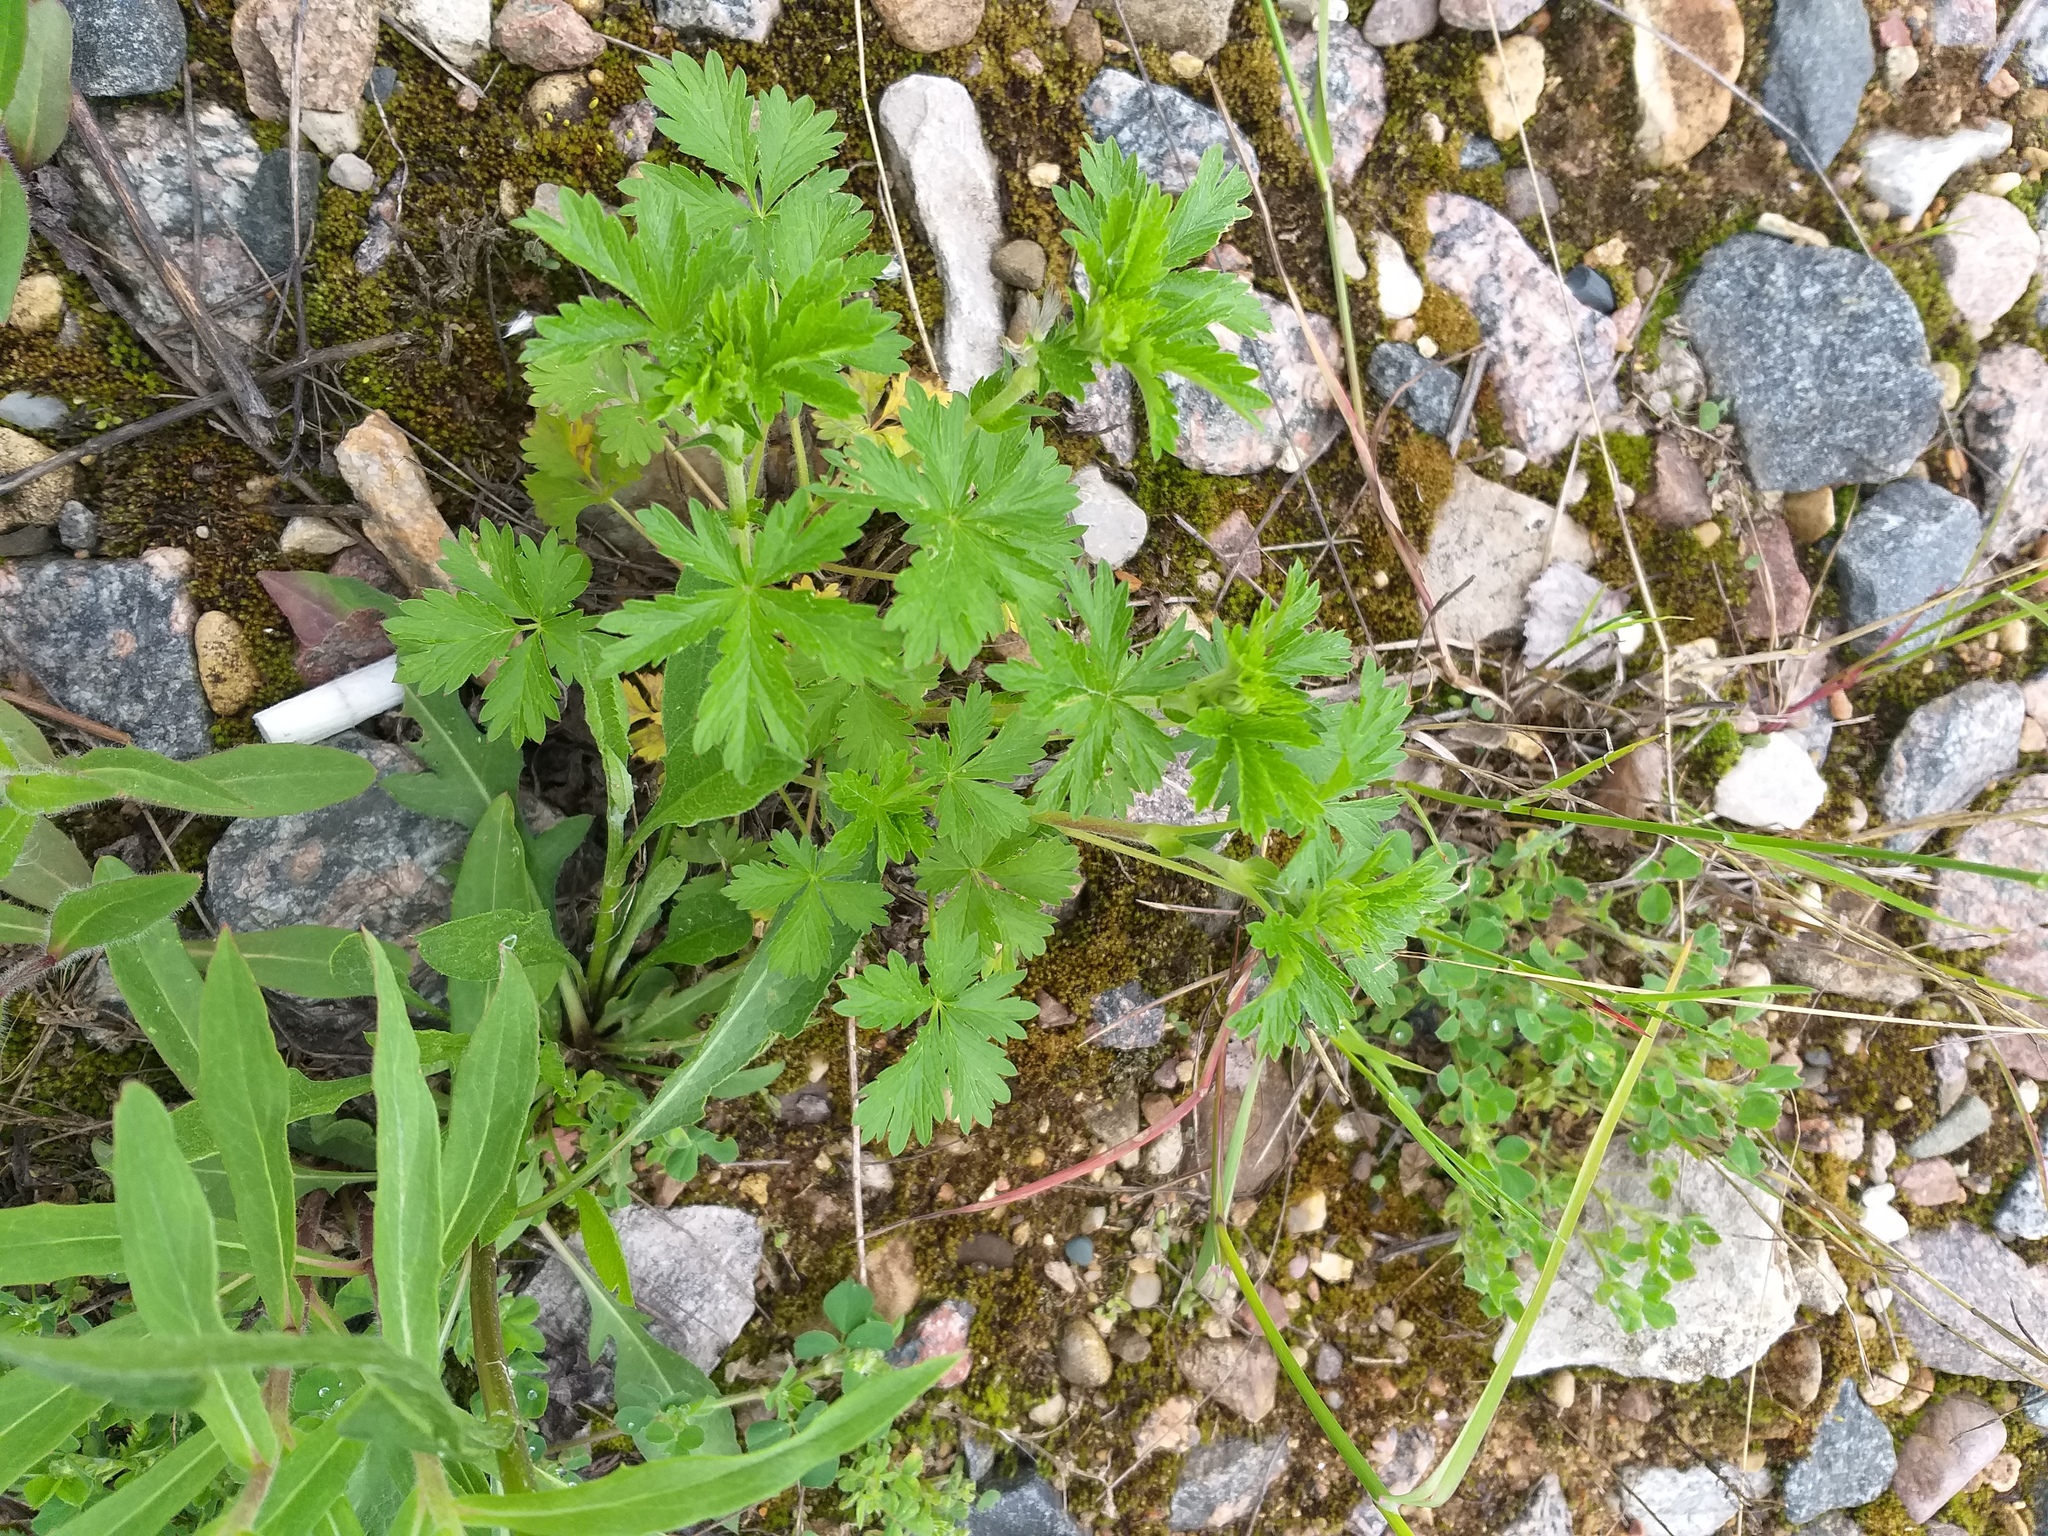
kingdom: Plantae
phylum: Tracheophyta
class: Magnoliopsida
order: Rosales
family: Rosaceae
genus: Potentilla
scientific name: Potentilla intermedia
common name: Downy cinquefoil
